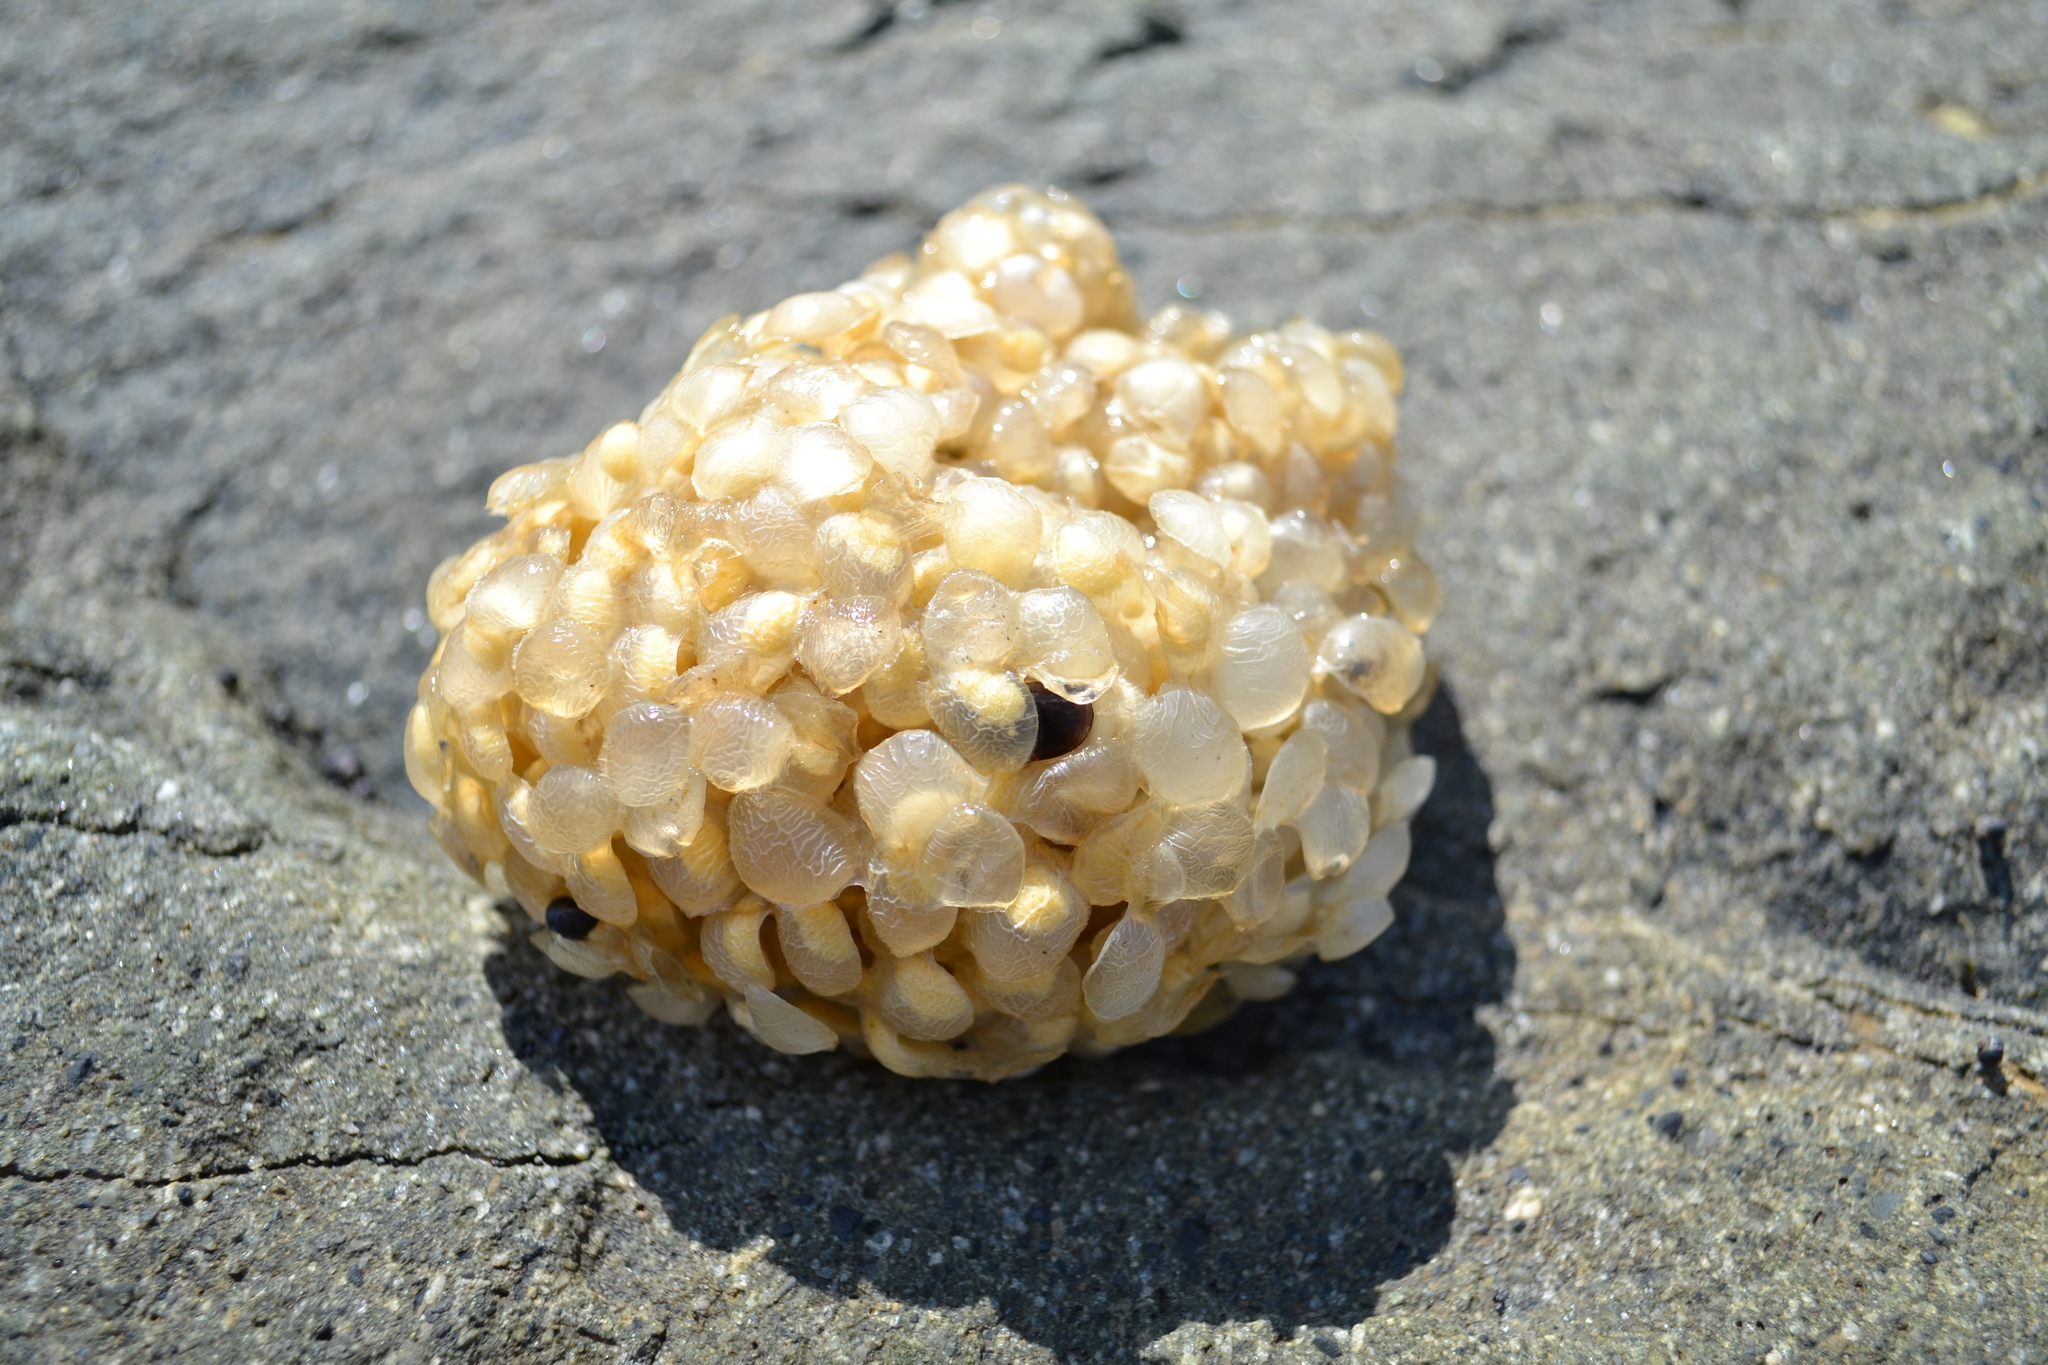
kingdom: Animalia
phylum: Mollusca
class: Gastropoda
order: Neogastropoda
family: Buccinidae
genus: Buccinum
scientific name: Buccinum undatum
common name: Common whelk
